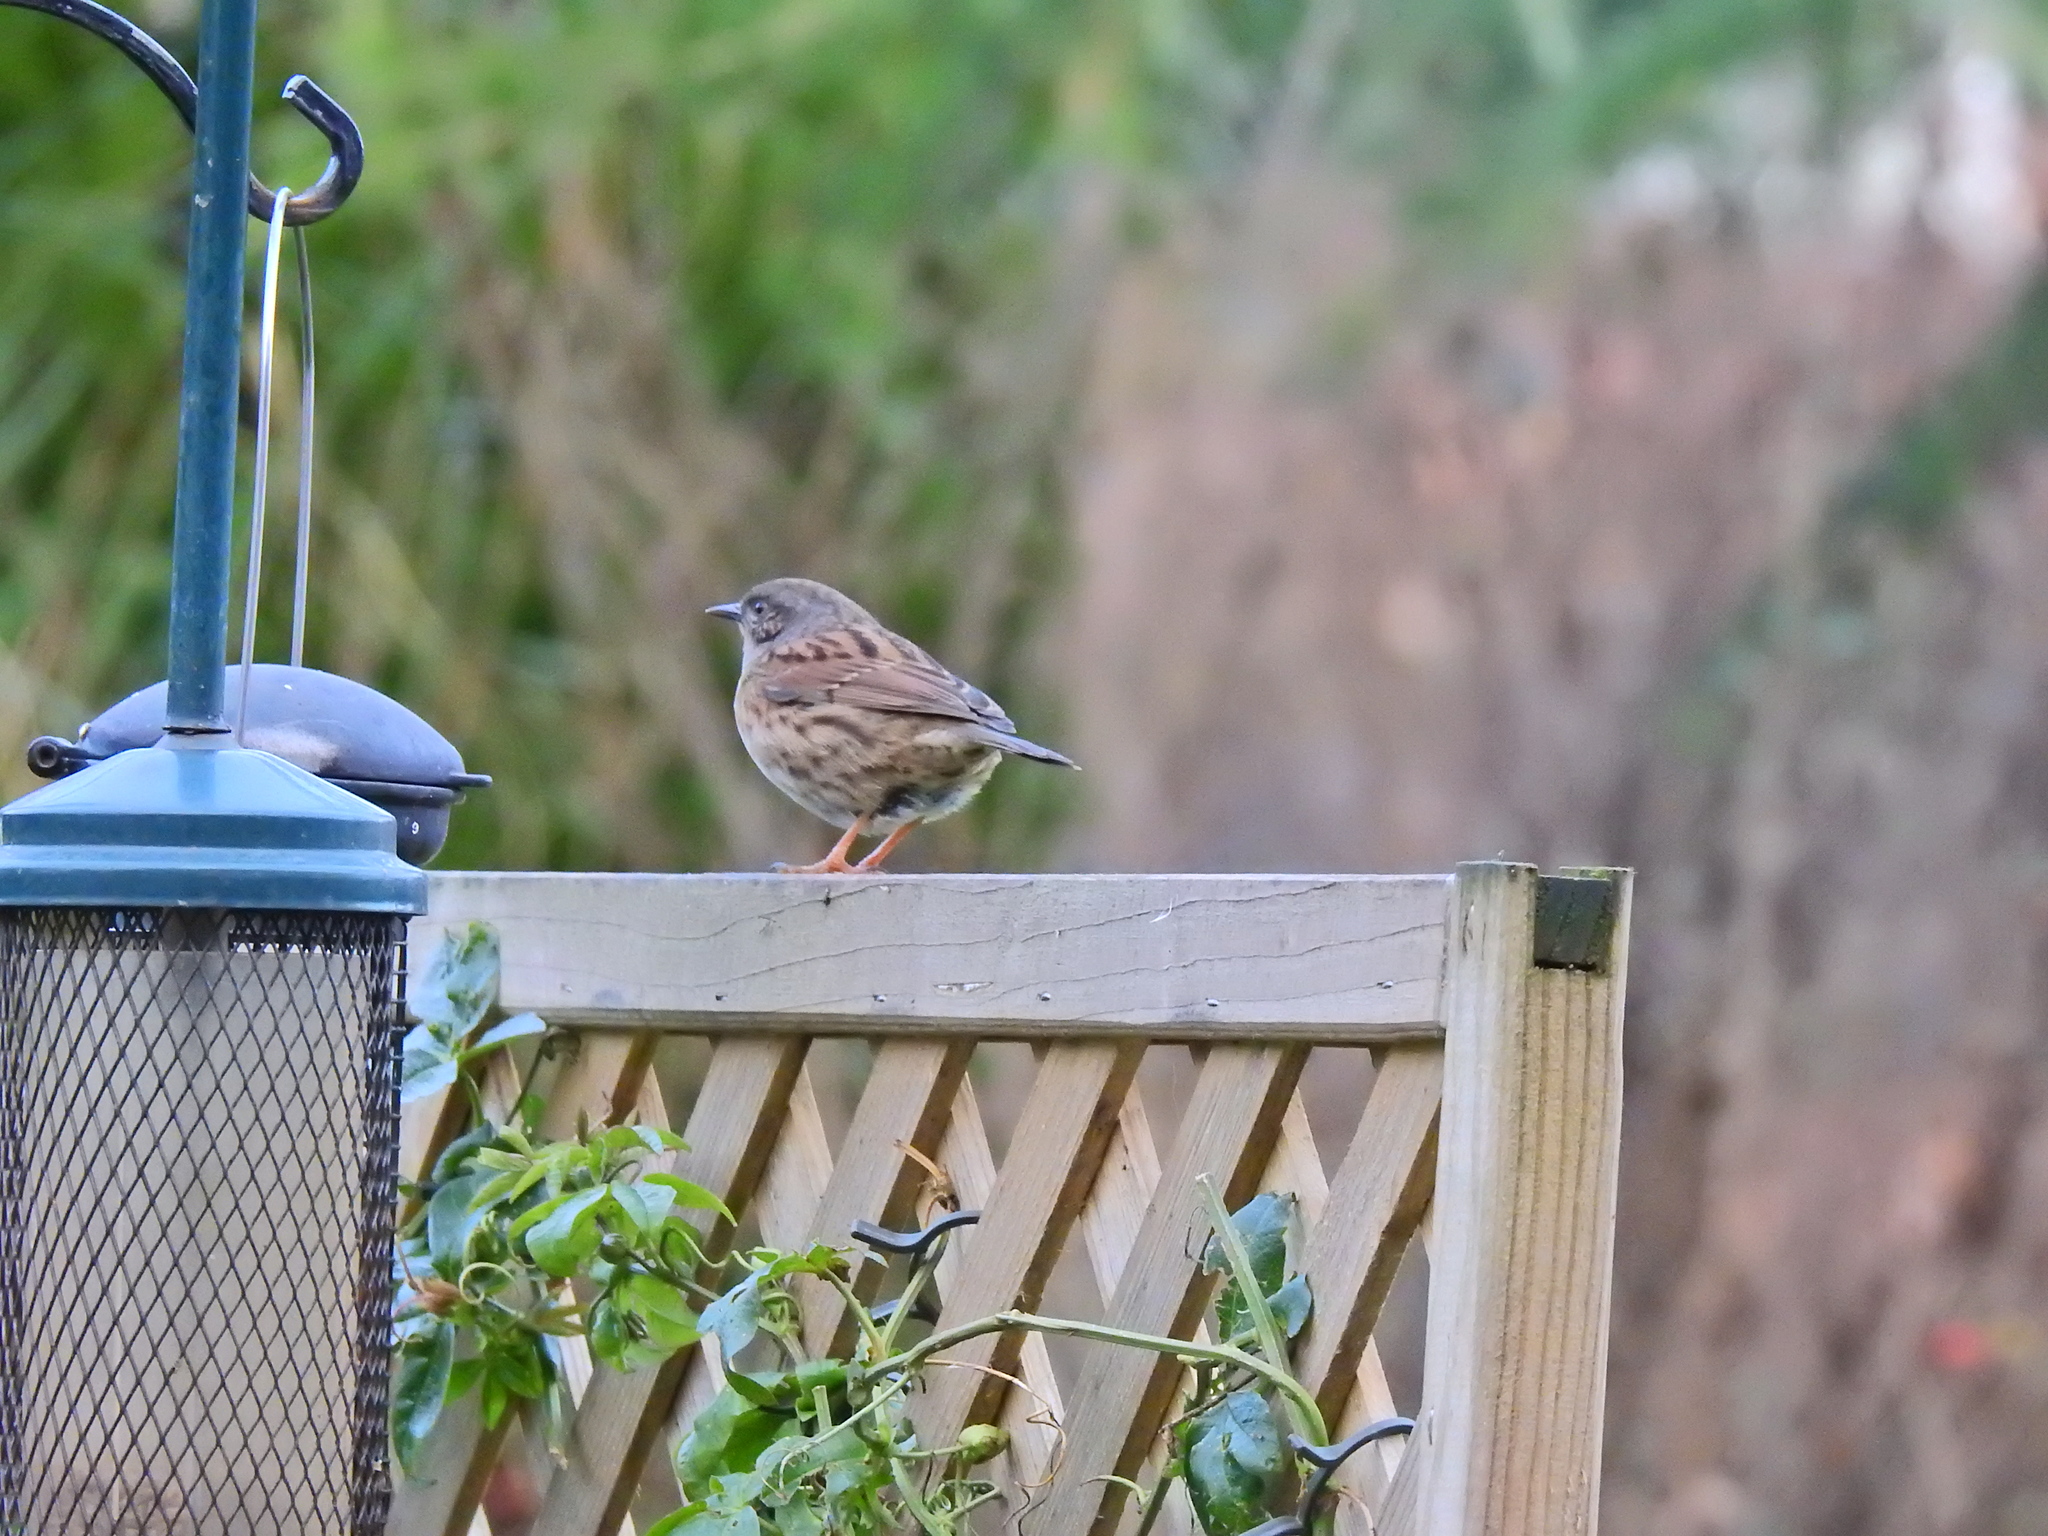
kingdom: Animalia
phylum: Chordata
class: Aves
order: Passeriformes
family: Prunellidae
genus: Prunella
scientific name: Prunella modularis
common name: Dunnock
